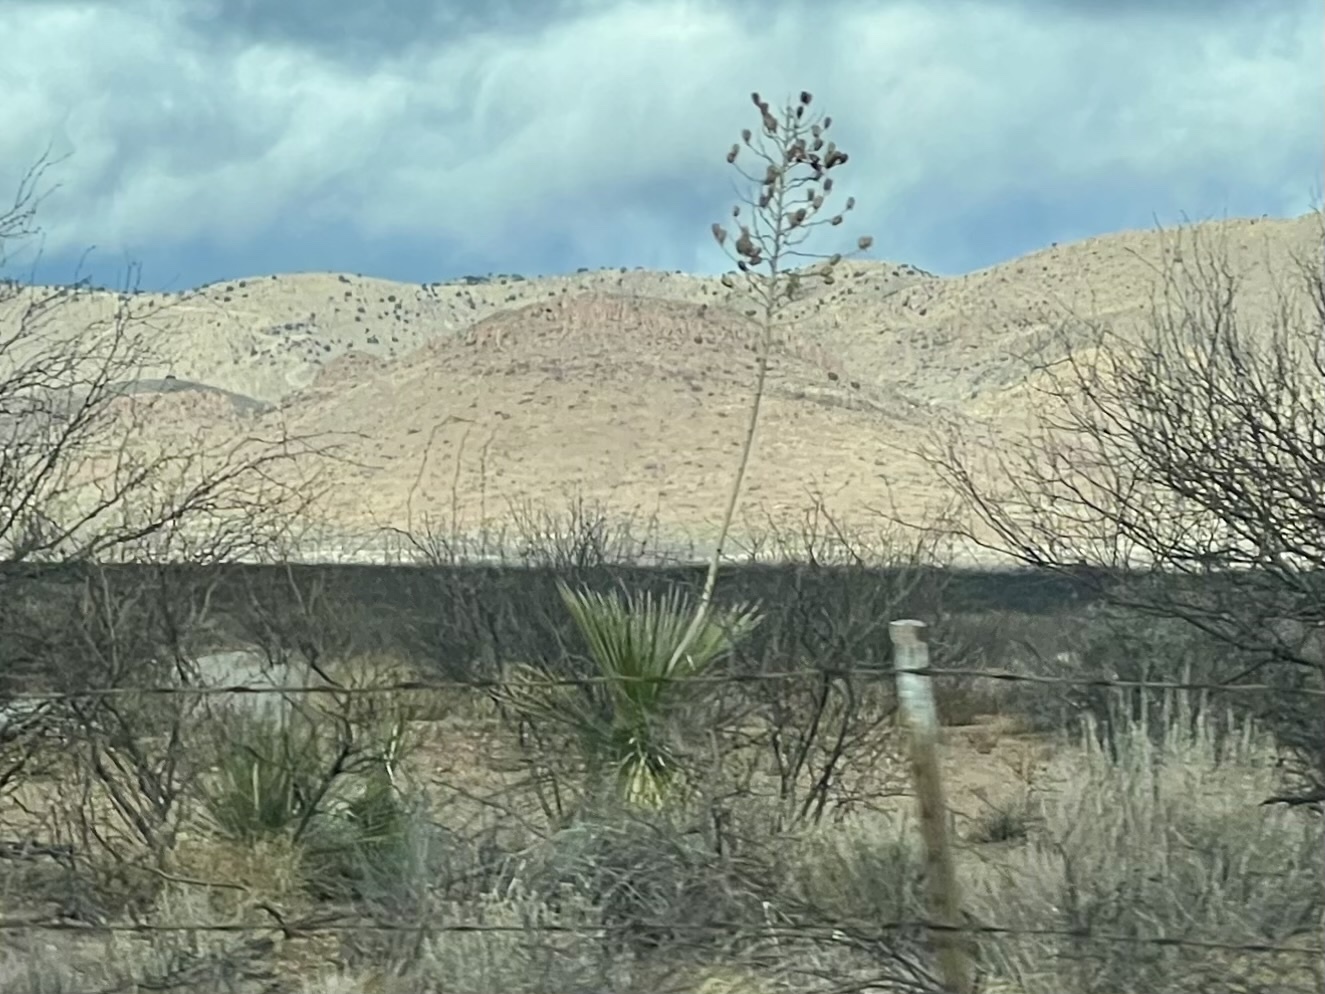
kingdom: Plantae
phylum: Tracheophyta
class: Liliopsida
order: Asparagales
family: Asparagaceae
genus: Yucca
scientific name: Yucca elata
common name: Palmella
